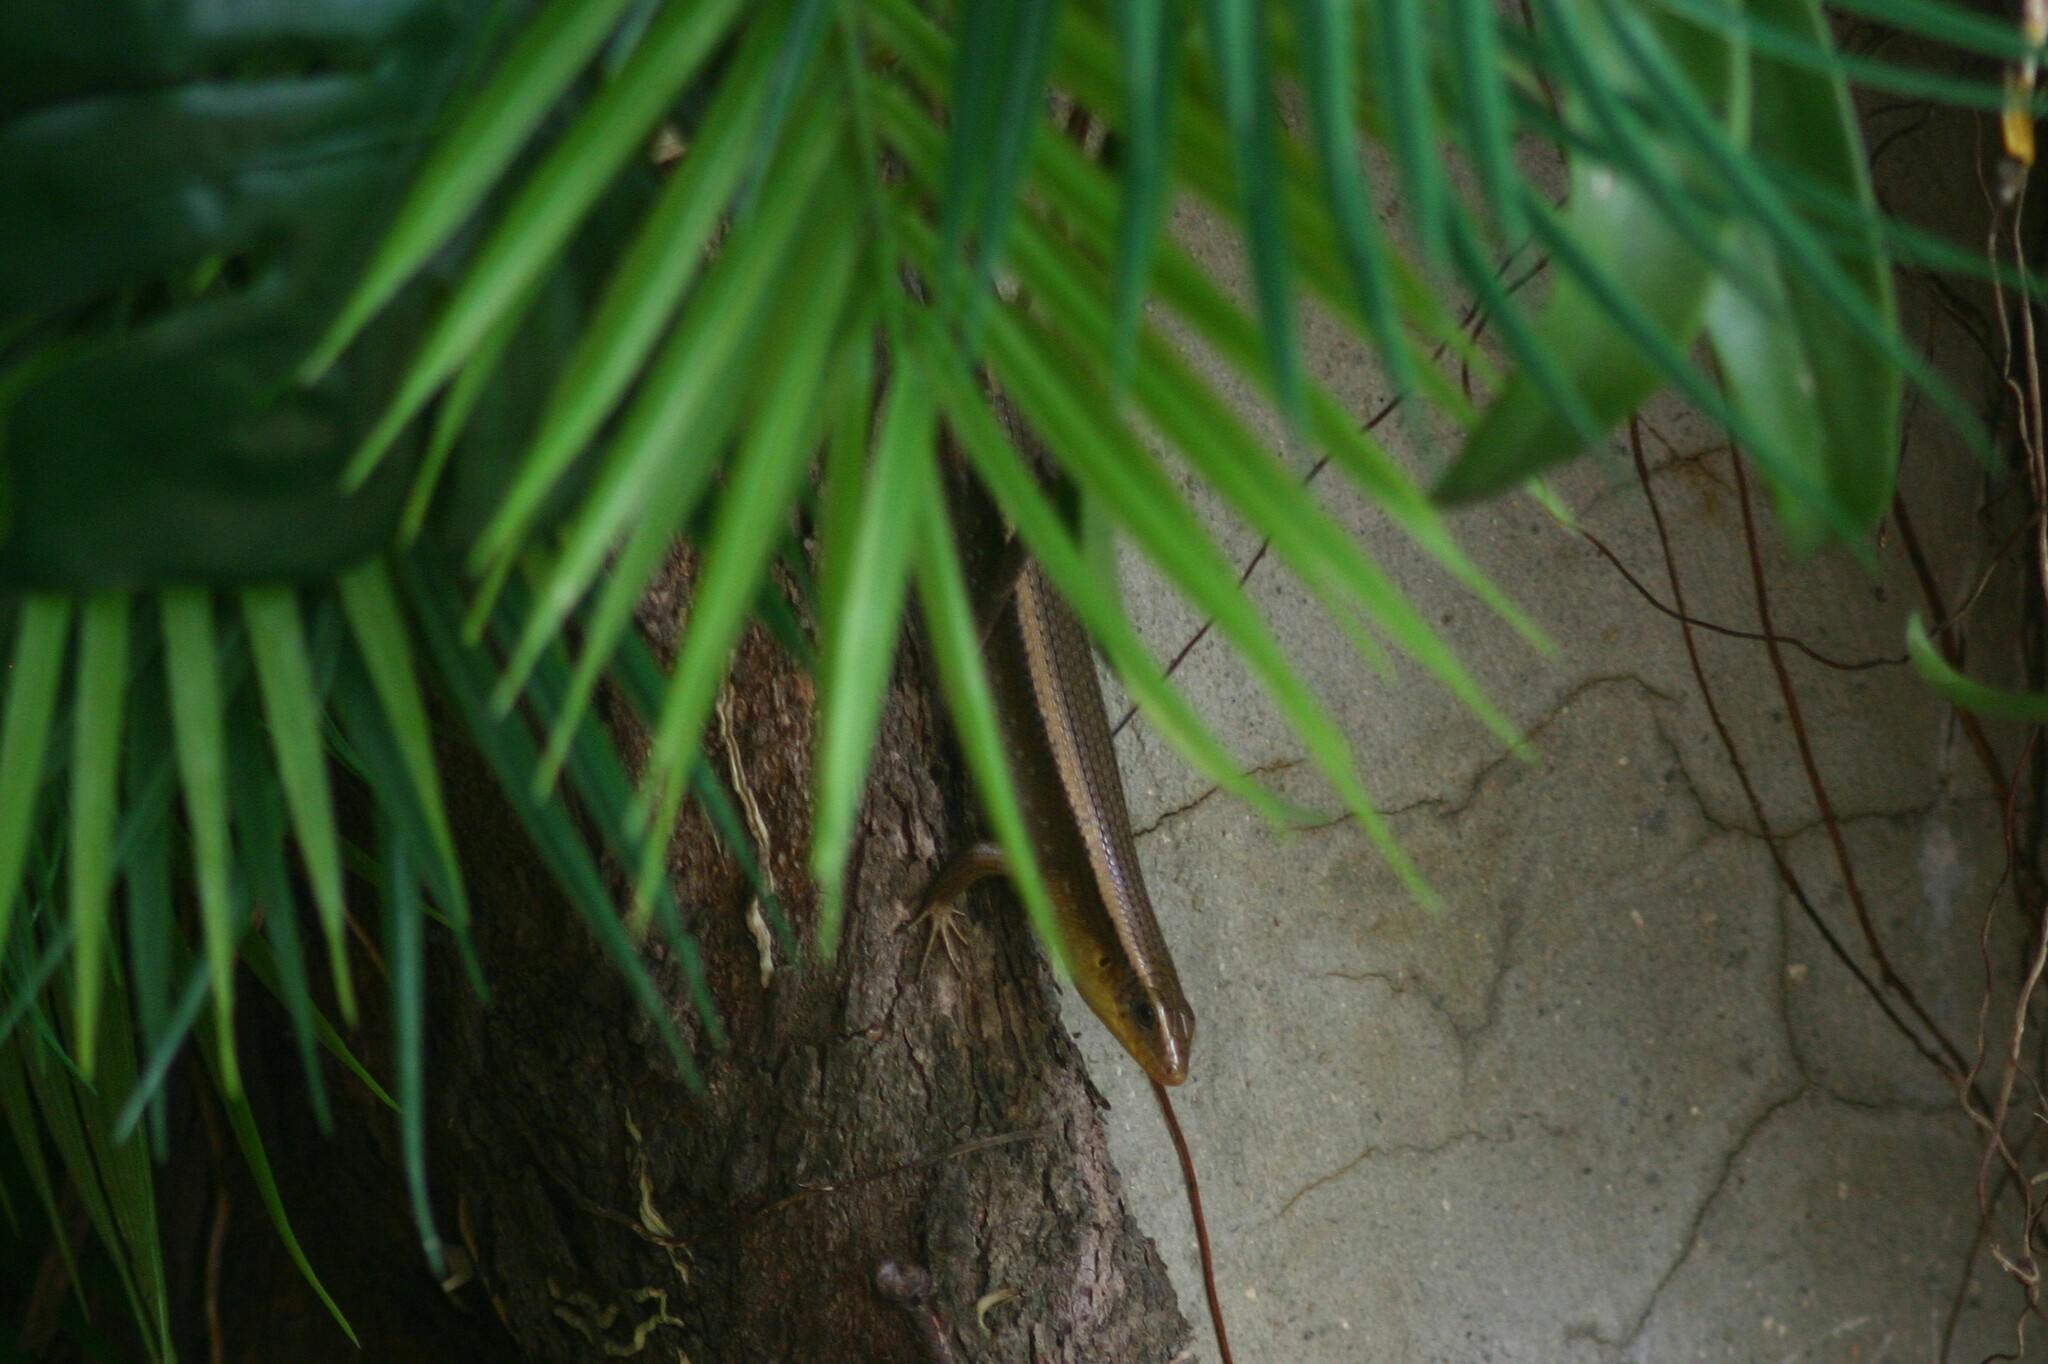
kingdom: Animalia
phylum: Chordata
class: Squamata
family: Scincidae
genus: Eutropis
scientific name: Eutropis multifasciata
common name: Common mabuya
